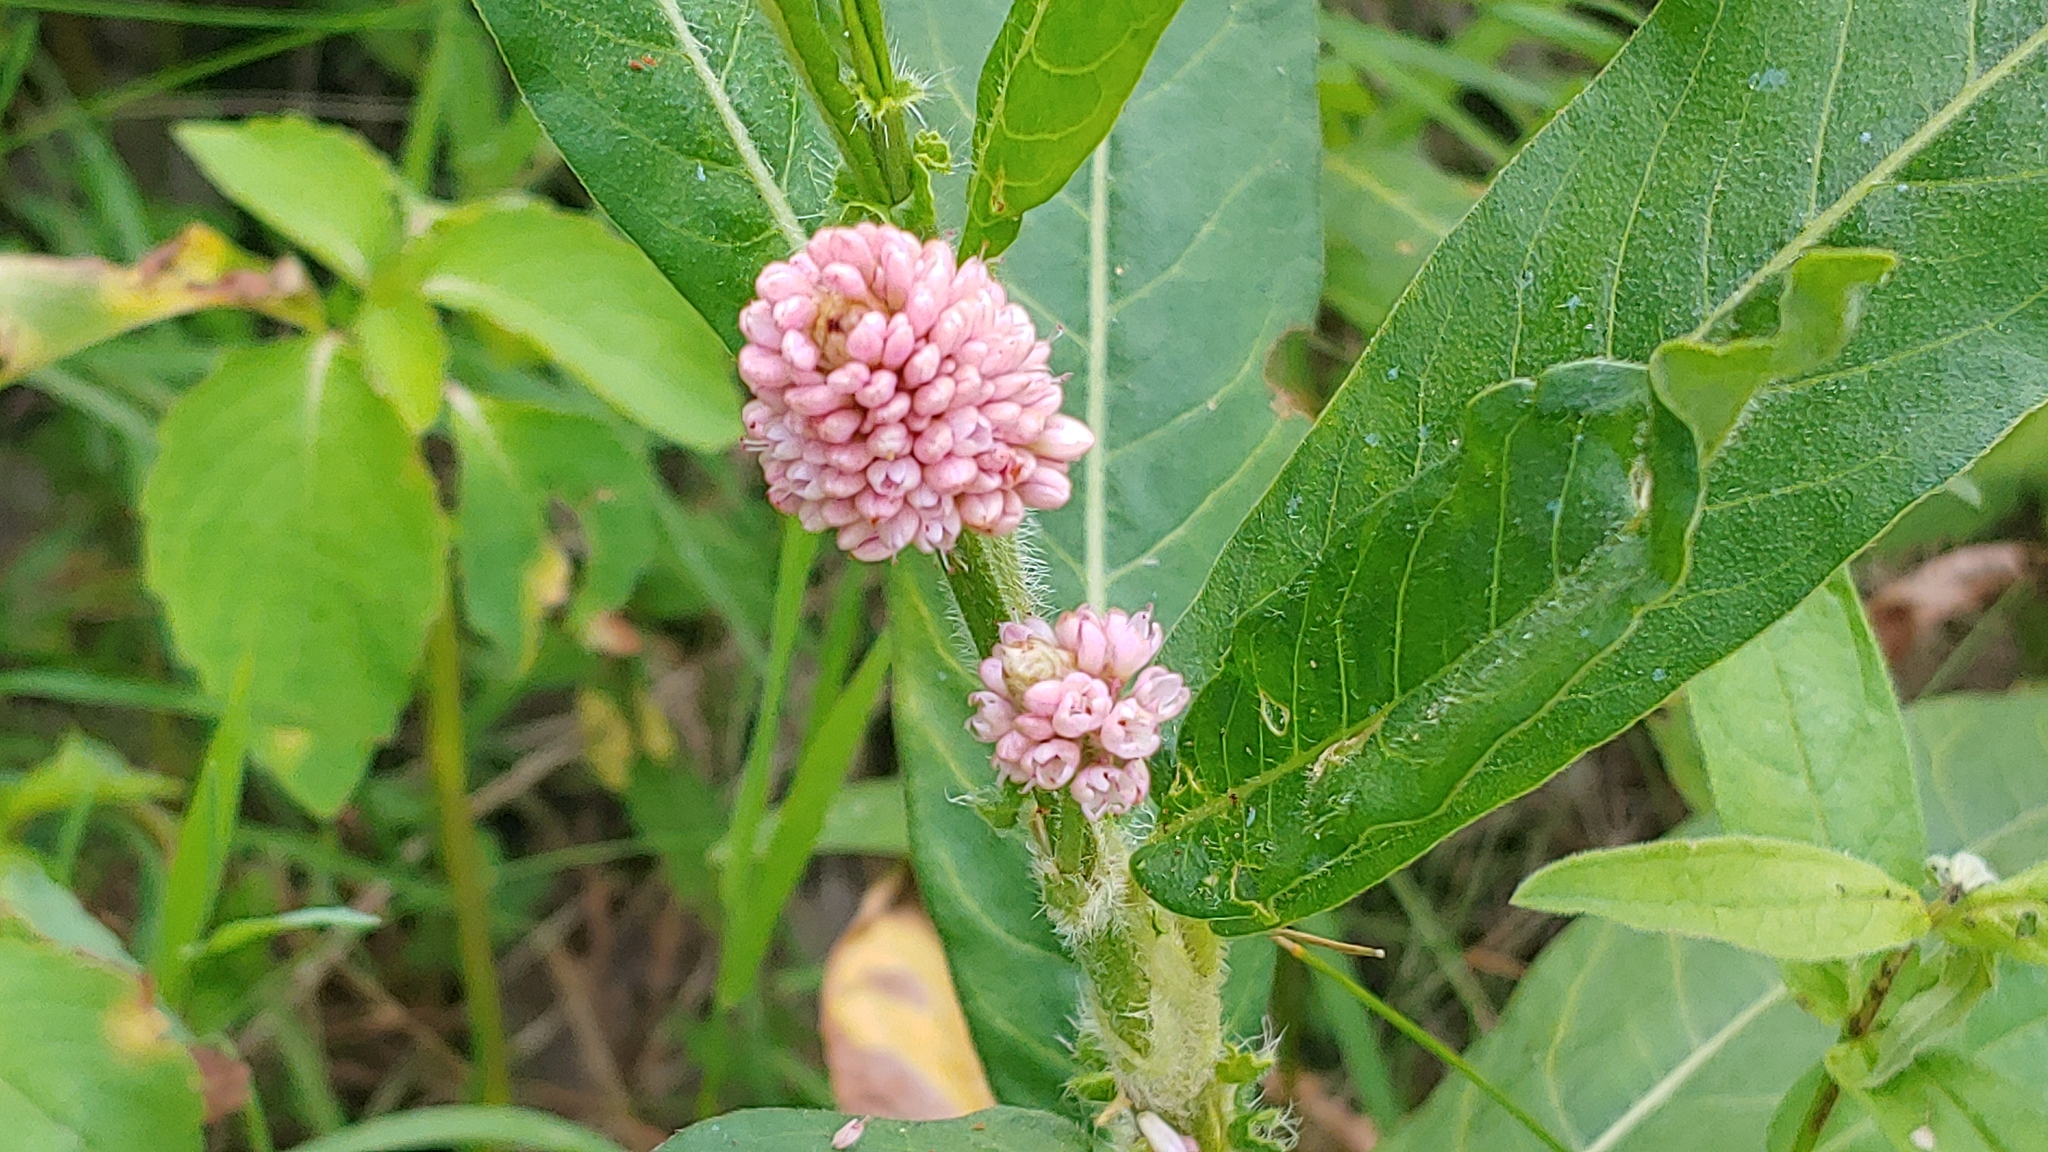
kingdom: Plantae
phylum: Tracheophyta
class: Magnoliopsida
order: Caryophyllales
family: Polygonaceae
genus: Persicaria
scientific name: Persicaria amphibia
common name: Amphibious bistort
